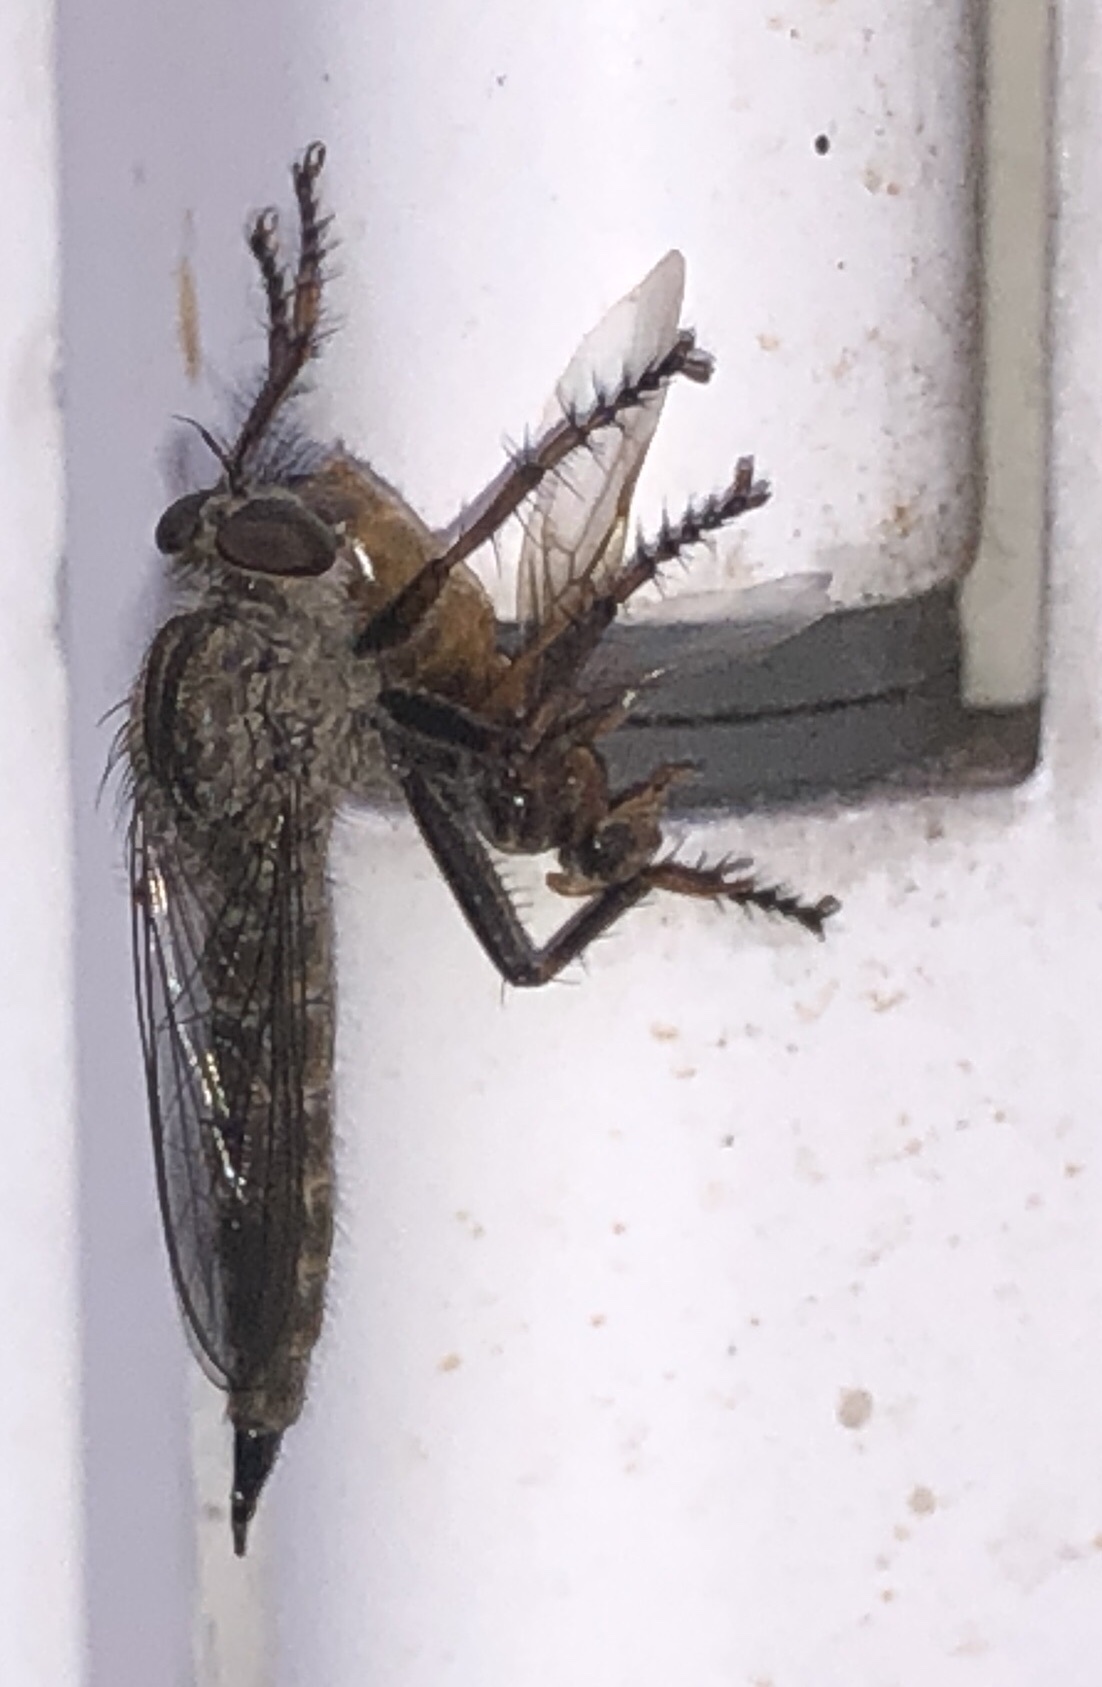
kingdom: Animalia
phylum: Arthropoda
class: Insecta
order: Diptera
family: Asilidae
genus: Machimus
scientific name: Machimus atricapillus
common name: Kite-tailed robberfly
